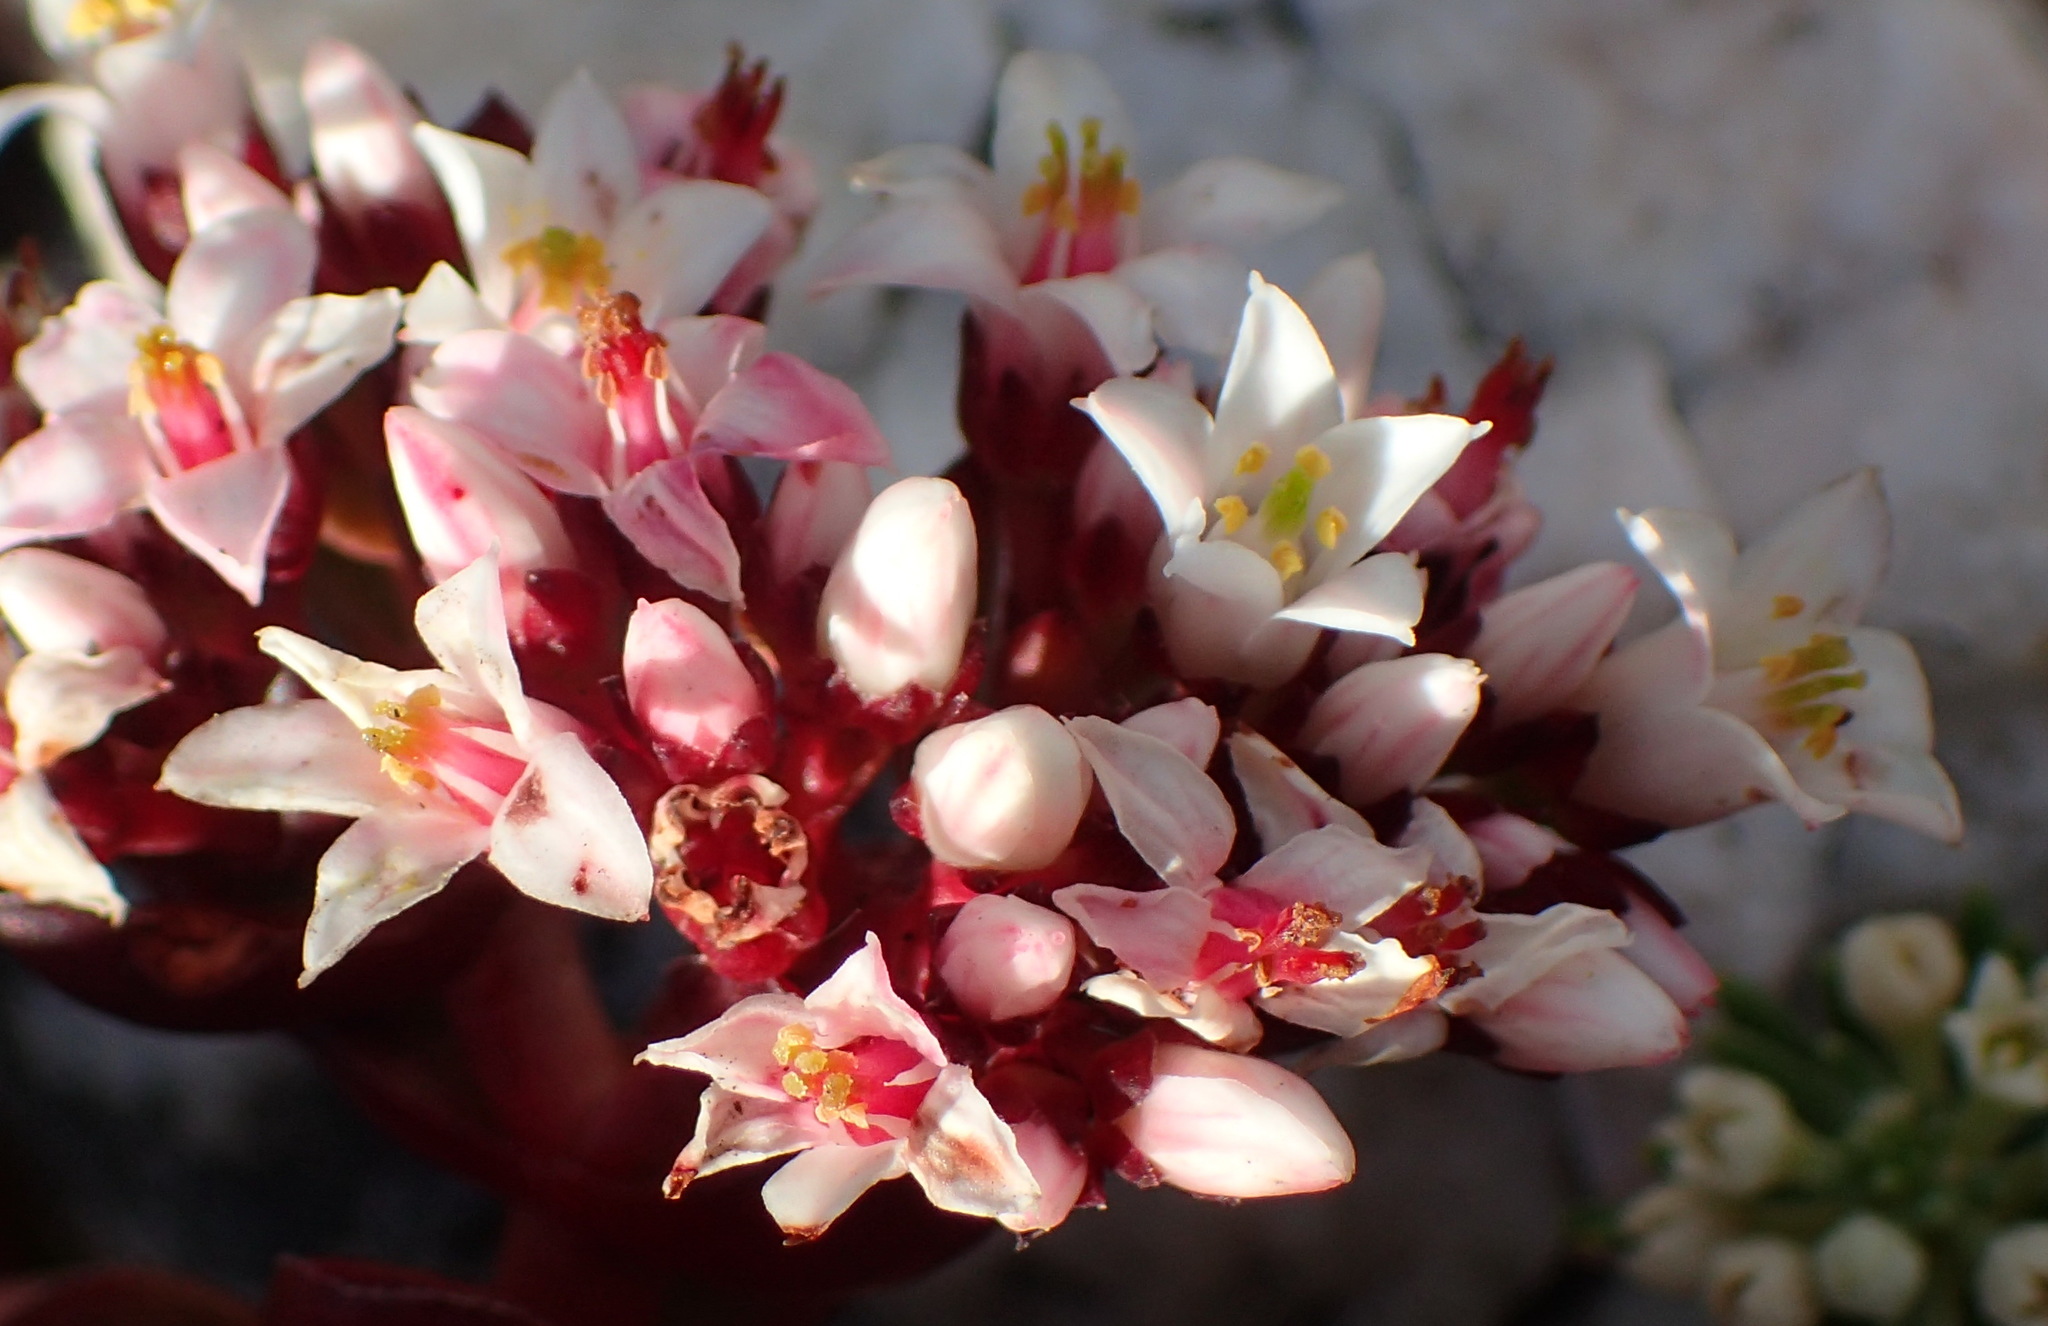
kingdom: Plantae
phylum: Tracheophyta
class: Magnoliopsida
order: Saxifragales
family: Crassulaceae
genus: Crassula
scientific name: Crassula rubricaulis
